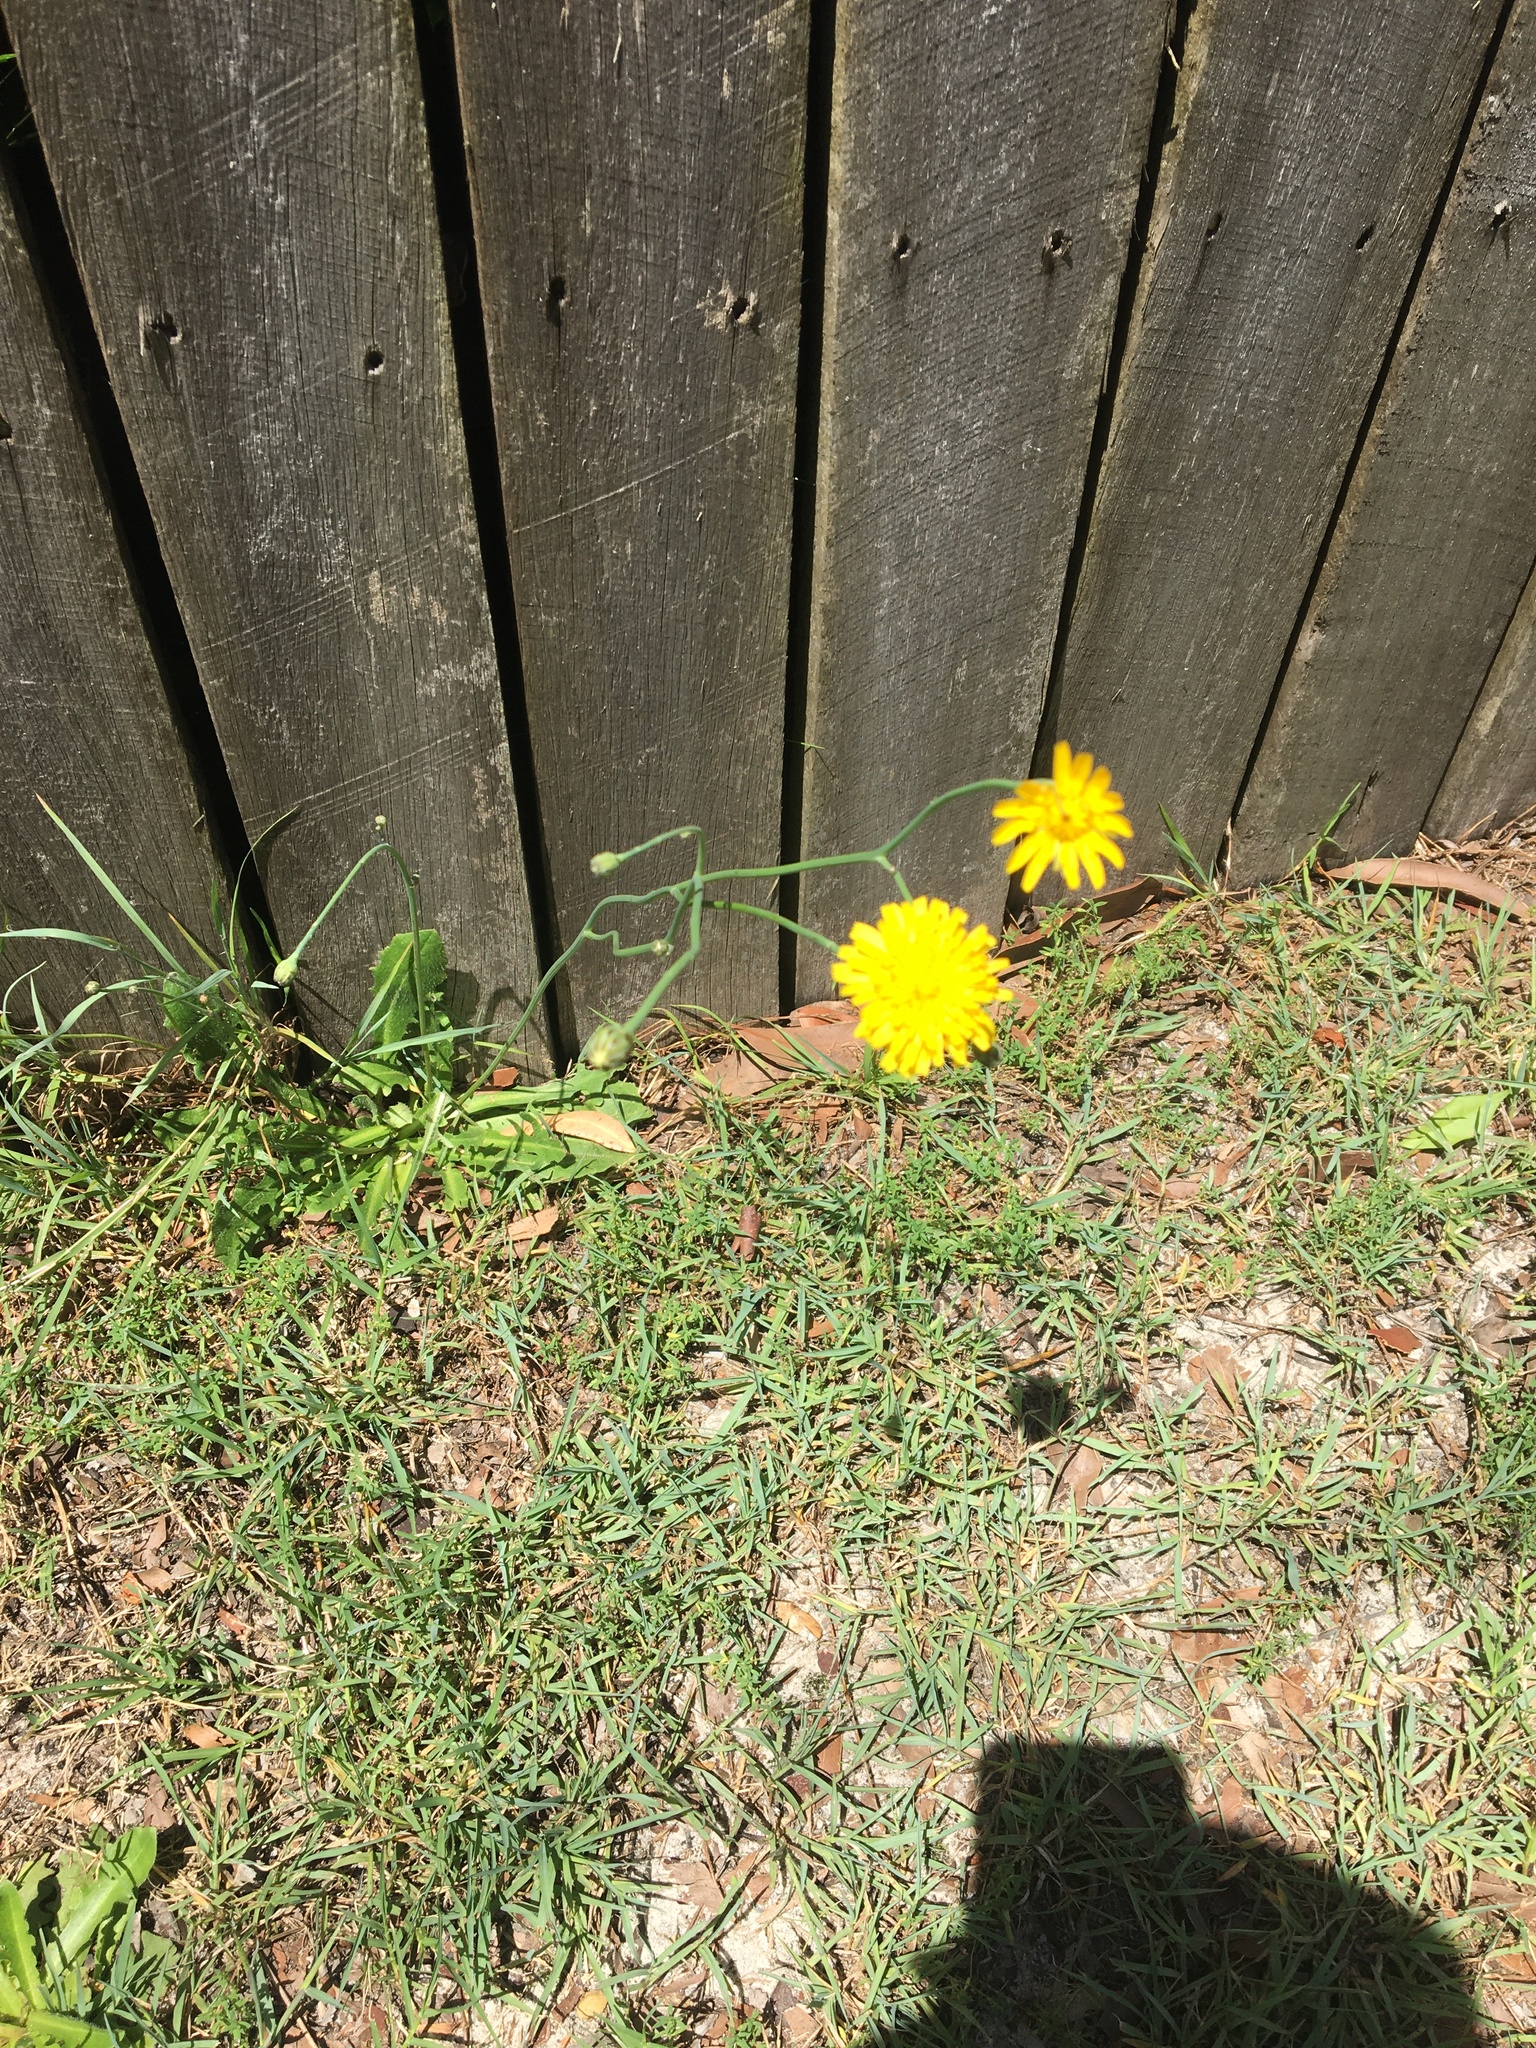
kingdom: Plantae
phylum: Tracheophyta
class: Magnoliopsida
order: Asterales
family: Asteraceae
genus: Hypochaeris
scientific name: Hypochaeris radicata
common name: Flatweed
